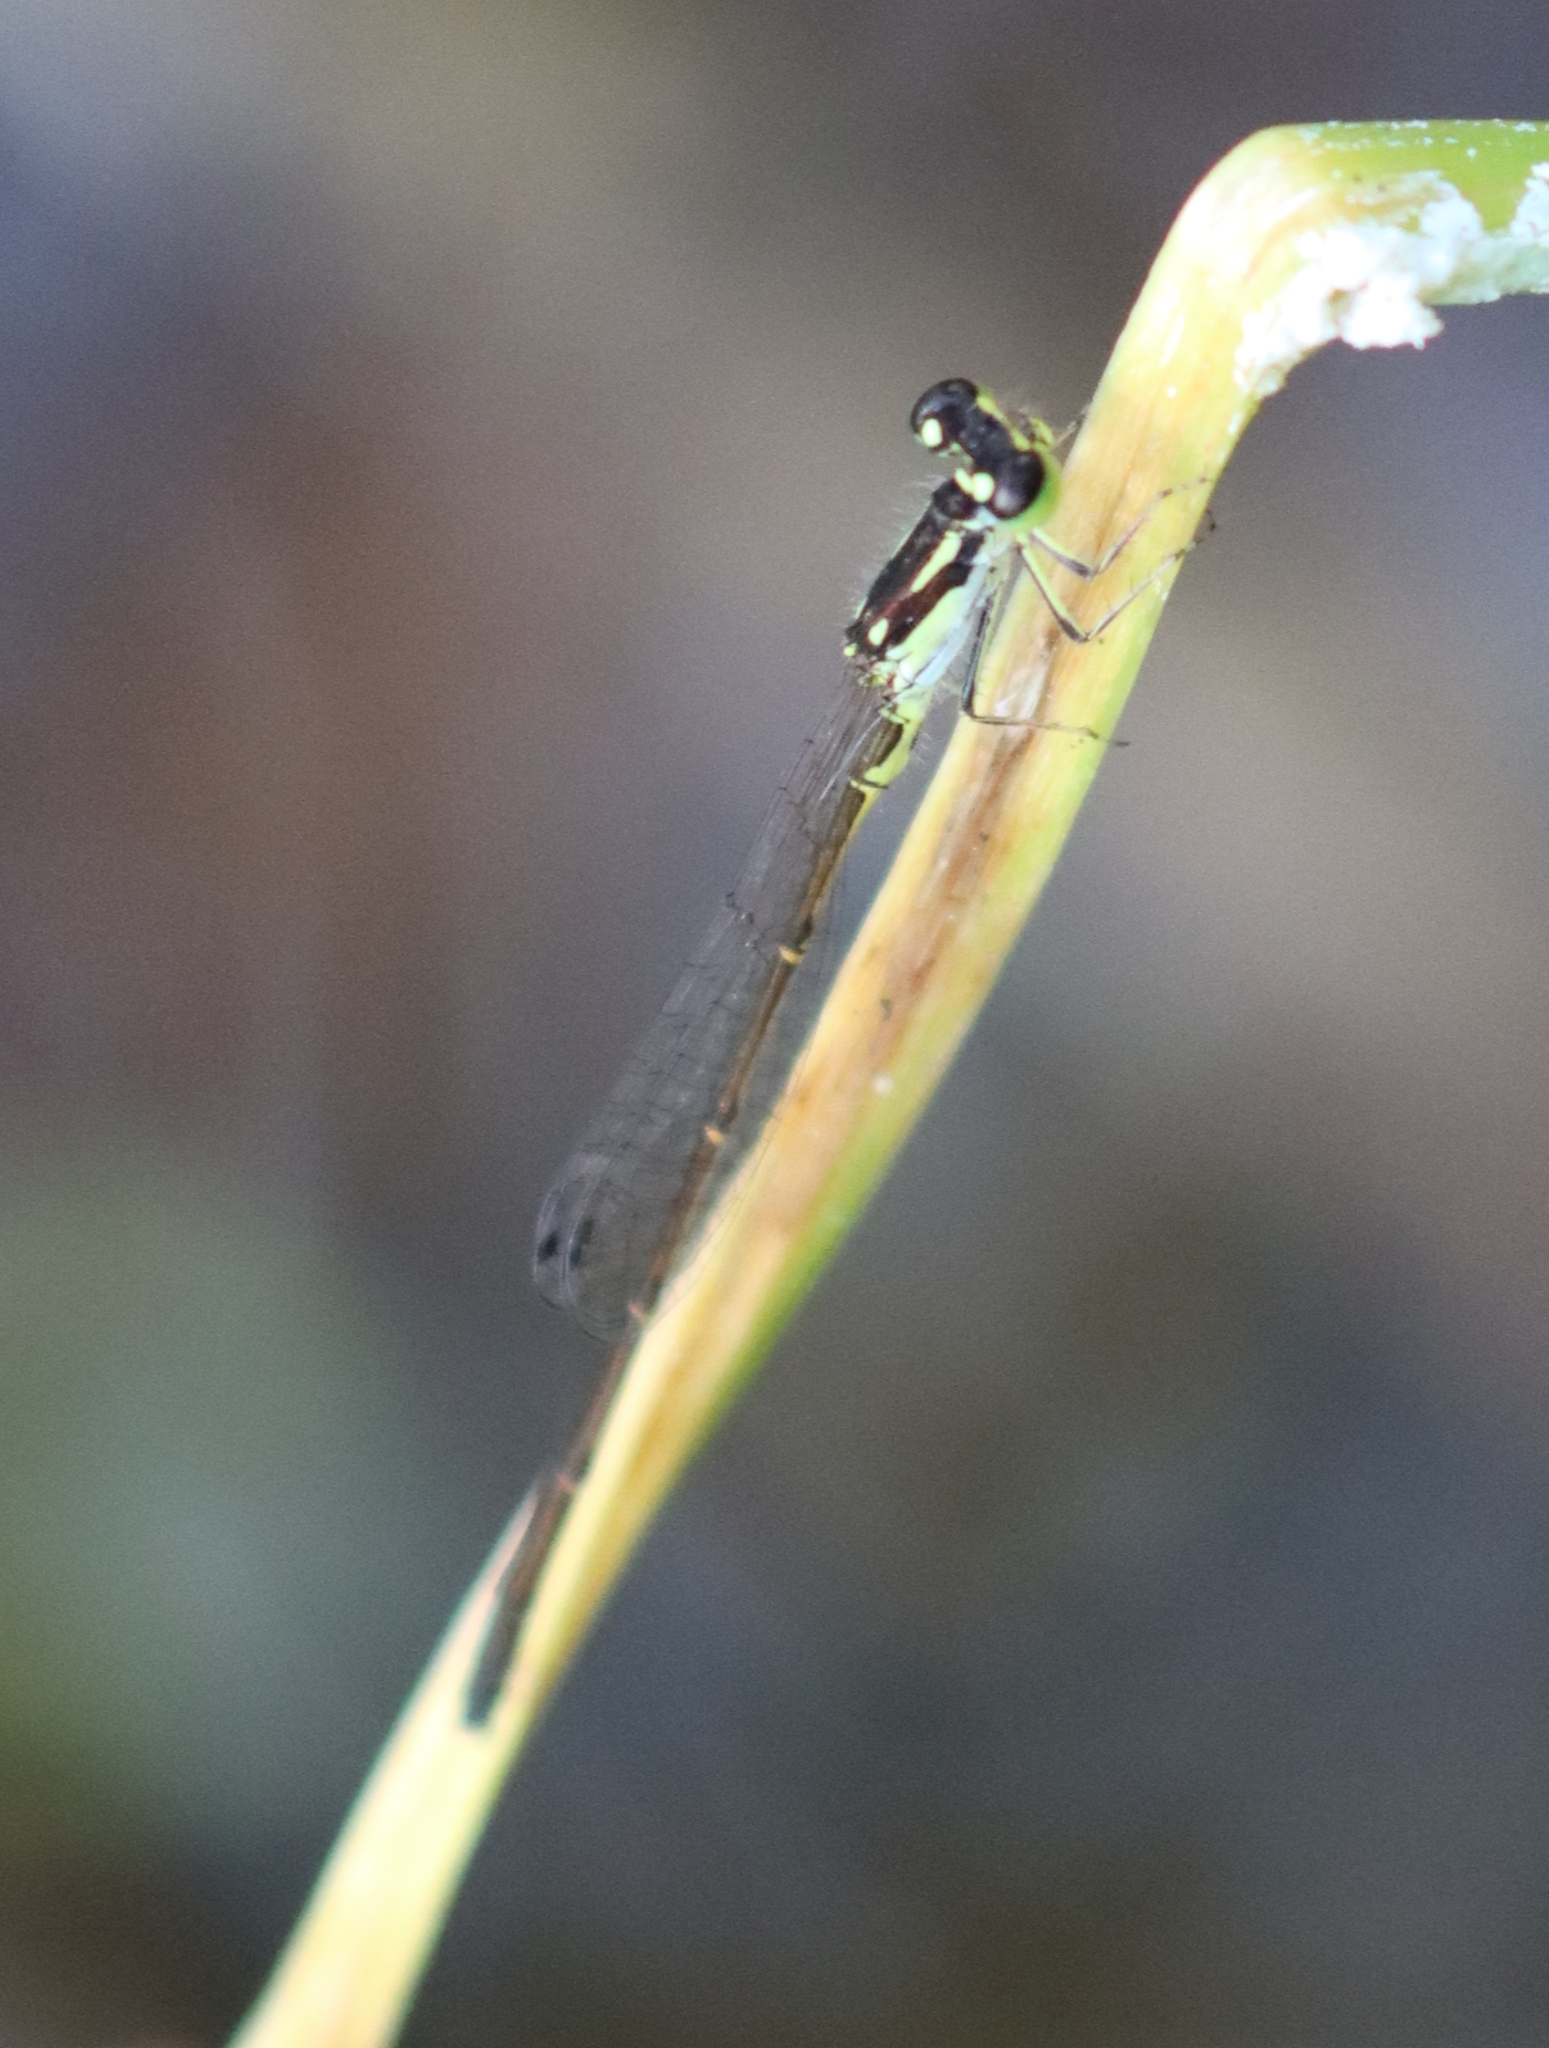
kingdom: Animalia
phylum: Arthropoda
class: Insecta
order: Odonata
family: Coenagrionidae
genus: Ischnura
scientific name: Ischnura posita
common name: Fragile forktail
